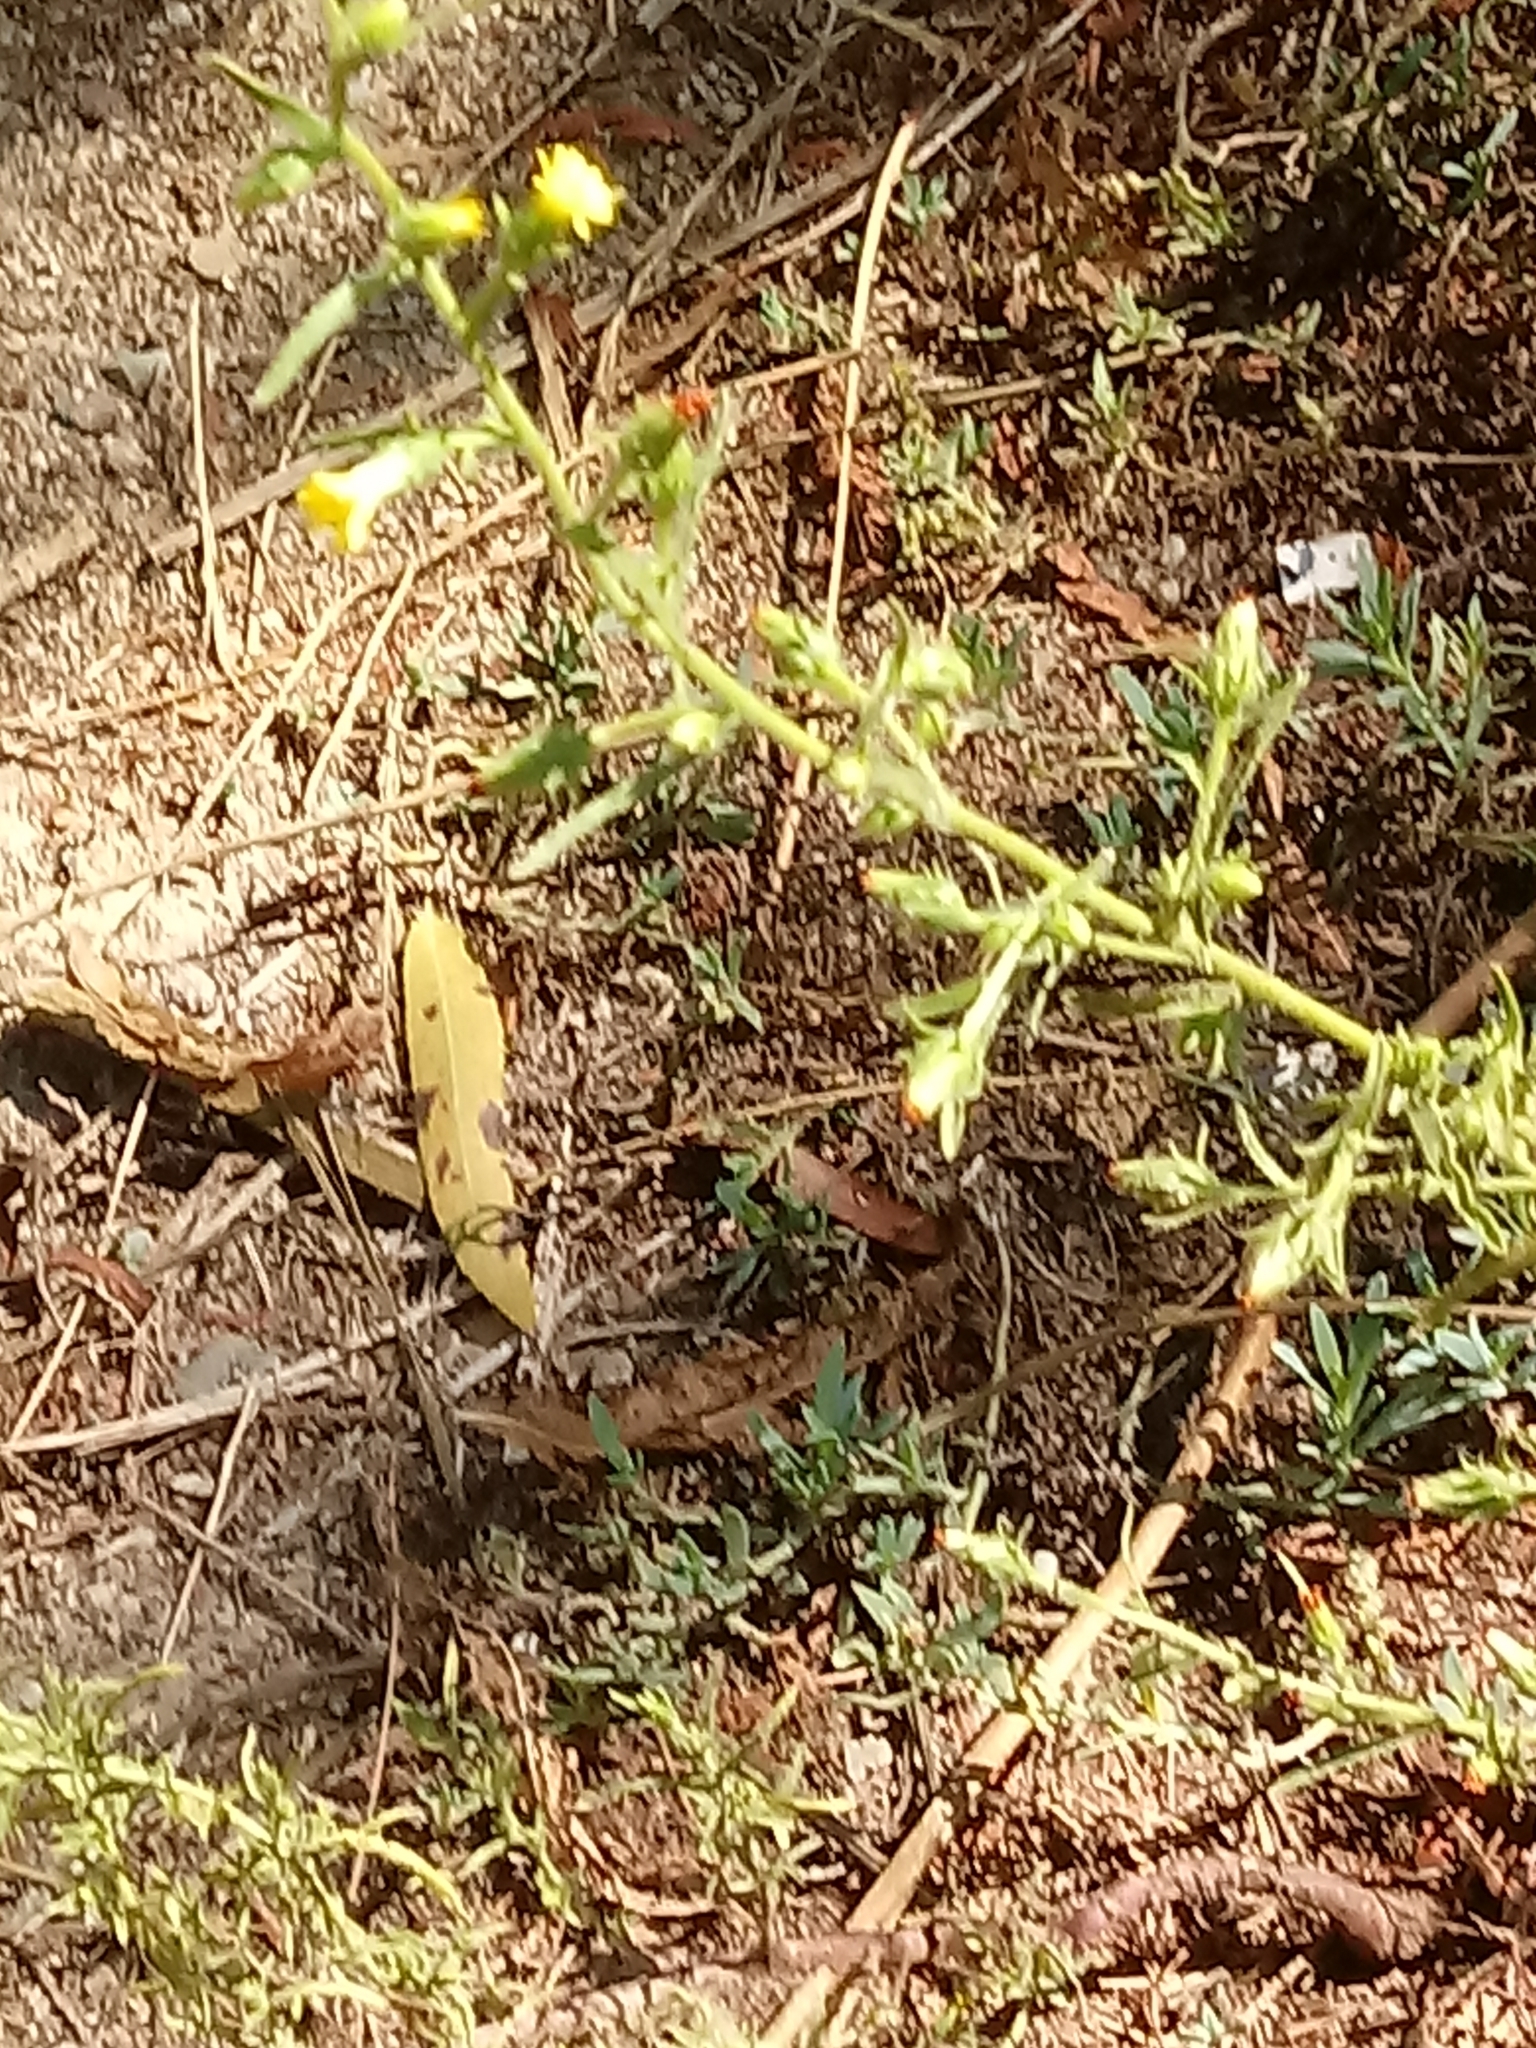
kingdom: Plantae
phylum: Tracheophyta
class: Magnoliopsida
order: Asterales
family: Asteraceae
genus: Dittrichia
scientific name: Dittrichia graveolens
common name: Stinking fleabane
